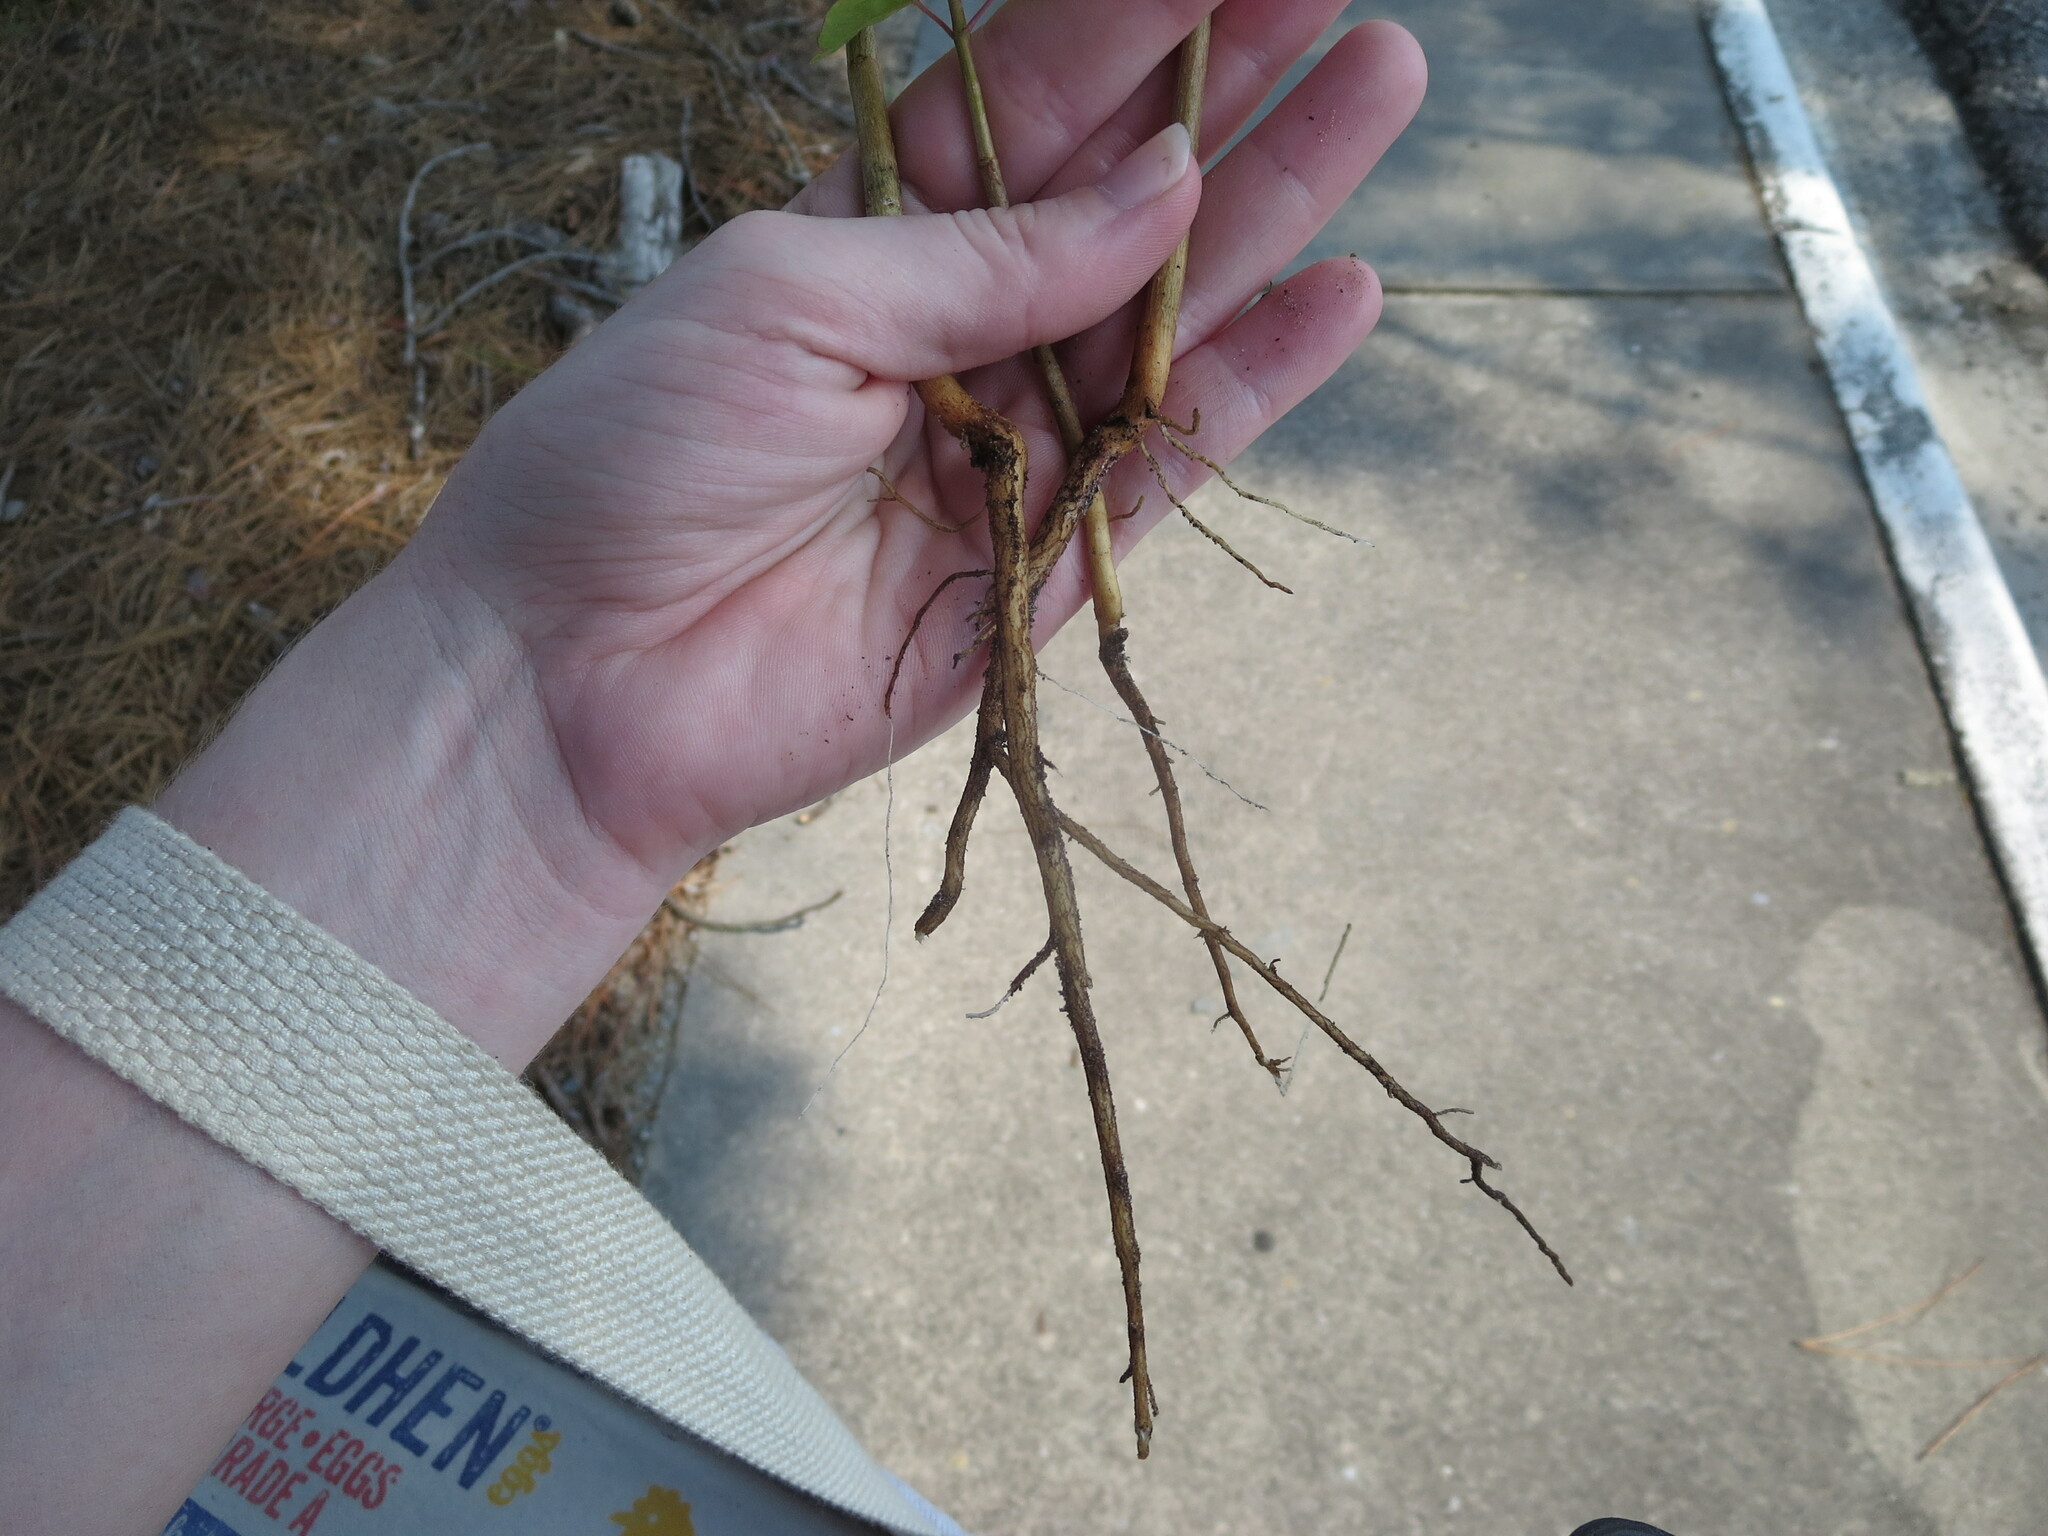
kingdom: Plantae
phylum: Tracheophyta
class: Magnoliopsida
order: Malpighiales
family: Euphorbiaceae
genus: Triadica
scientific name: Triadica sebifera
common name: Chinese tallow
